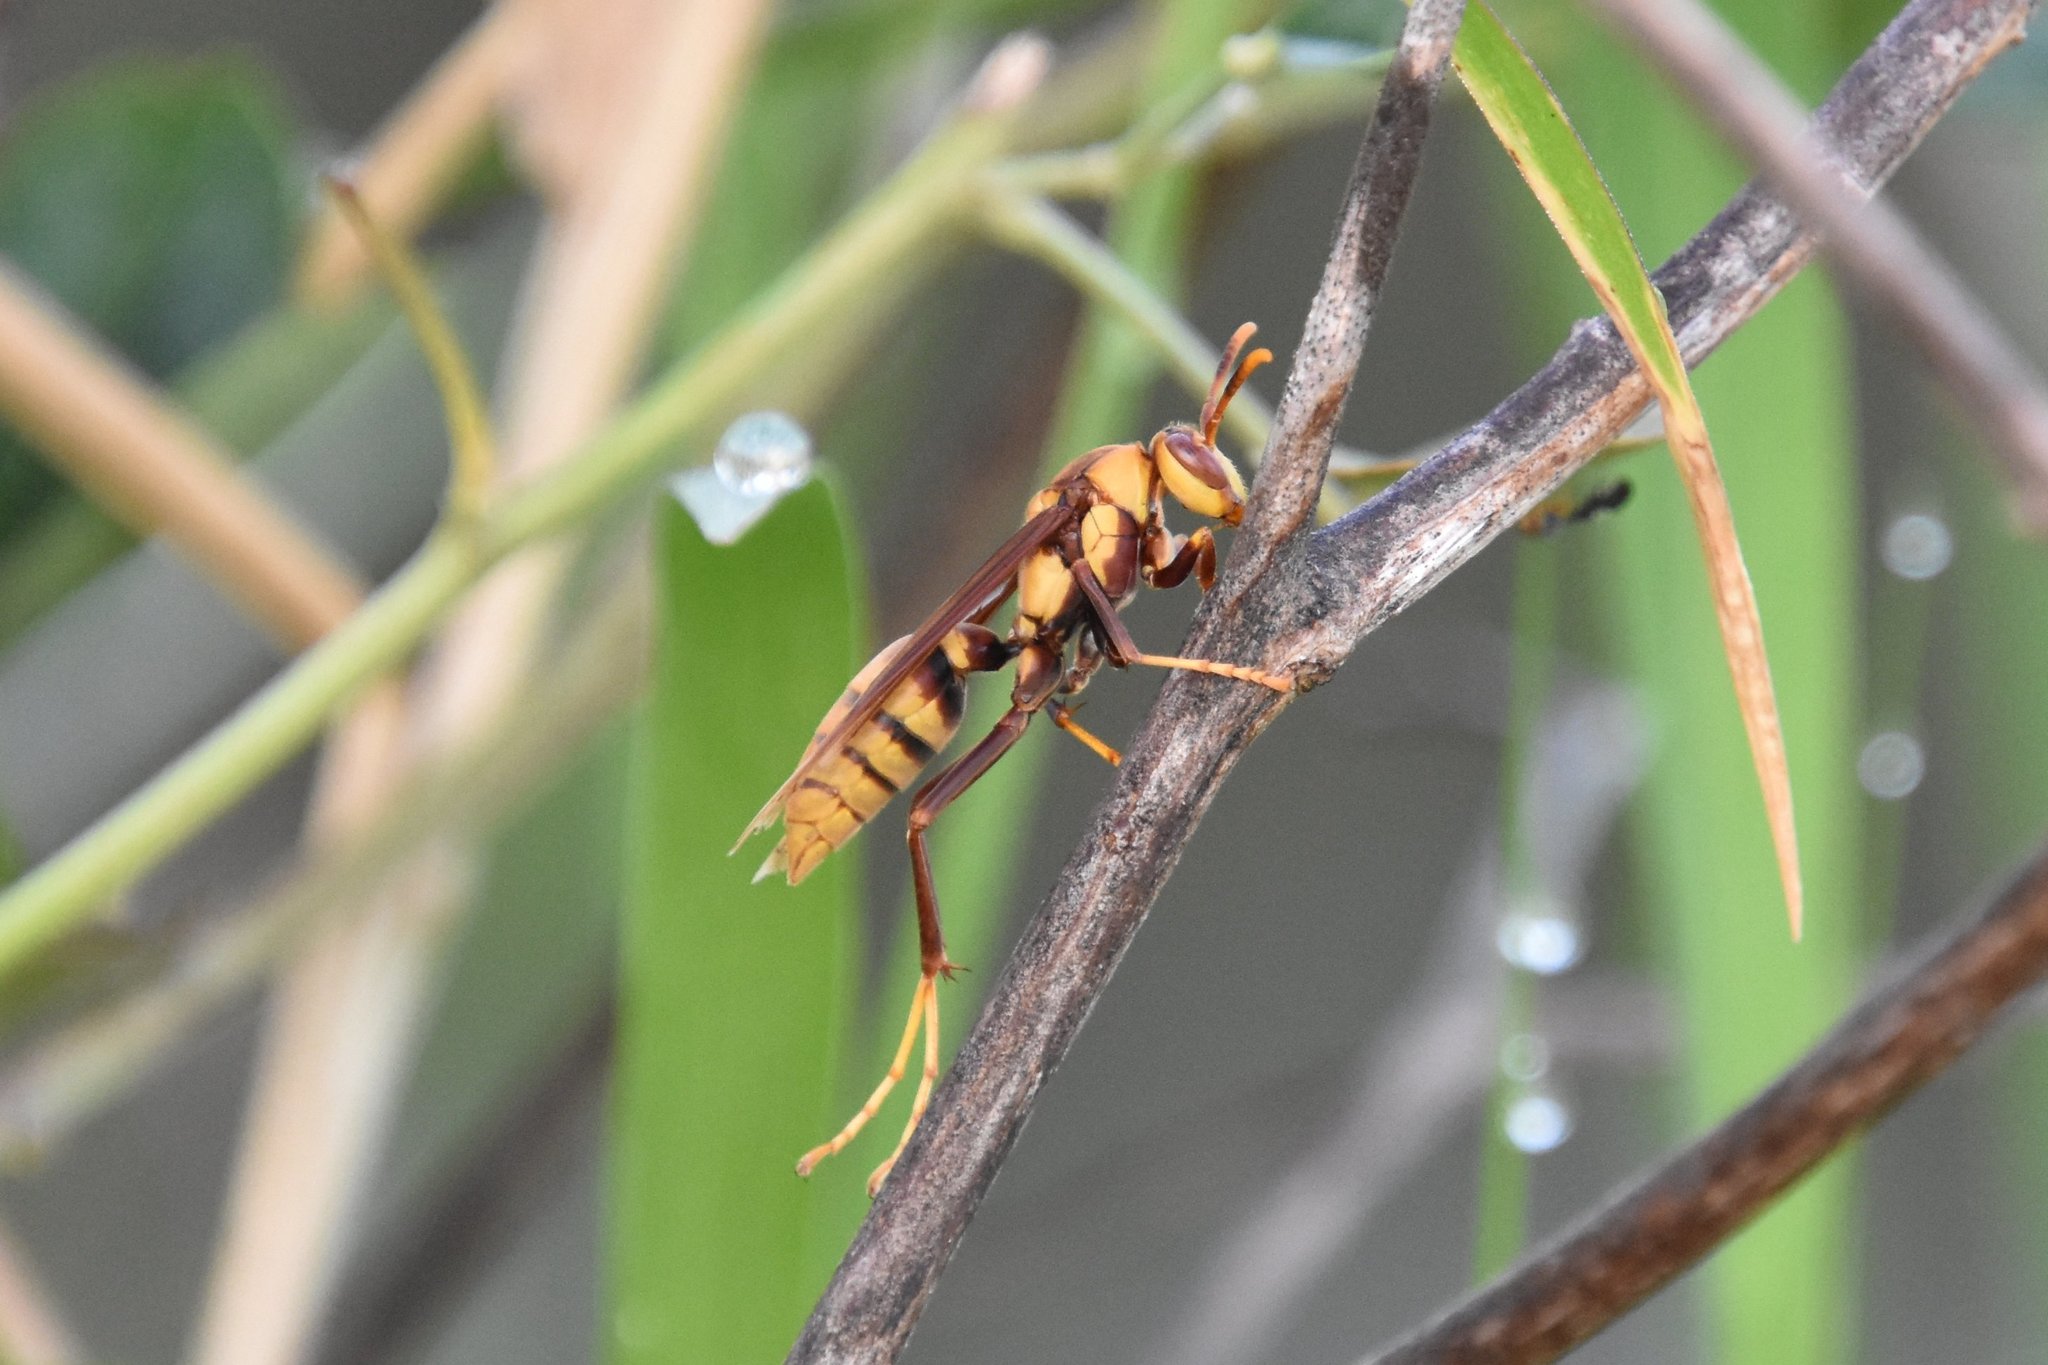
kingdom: Animalia
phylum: Arthropoda
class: Insecta
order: Hymenoptera
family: Eumenidae
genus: Polistes
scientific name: Polistes major
